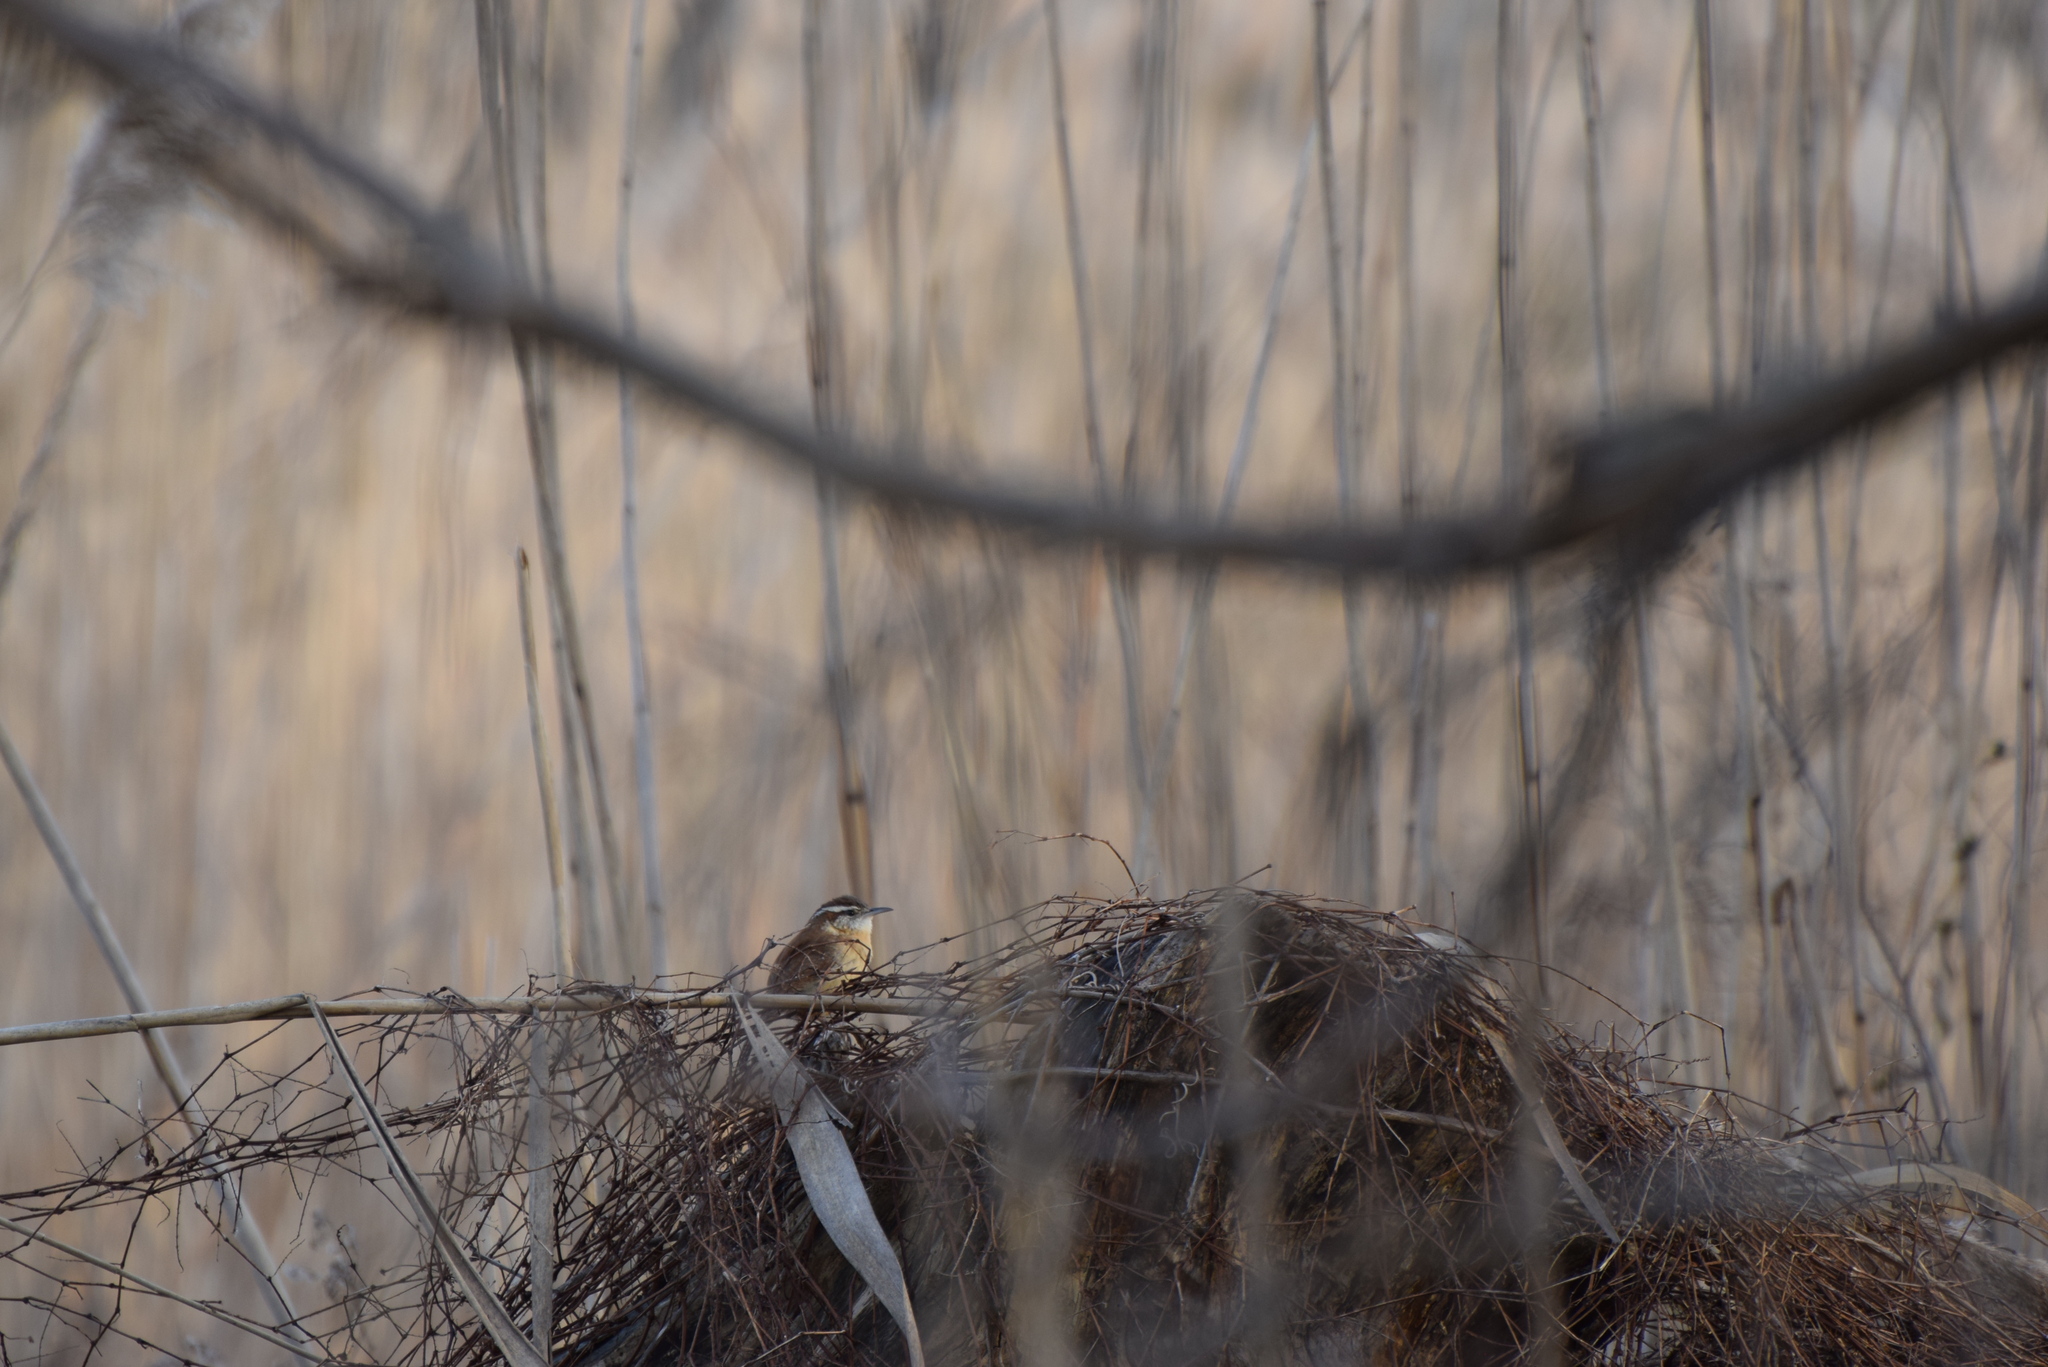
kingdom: Animalia
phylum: Chordata
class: Aves
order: Passeriformes
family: Troglodytidae
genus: Thryothorus
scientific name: Thryothorus ludovicianus
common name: Carolina wren
